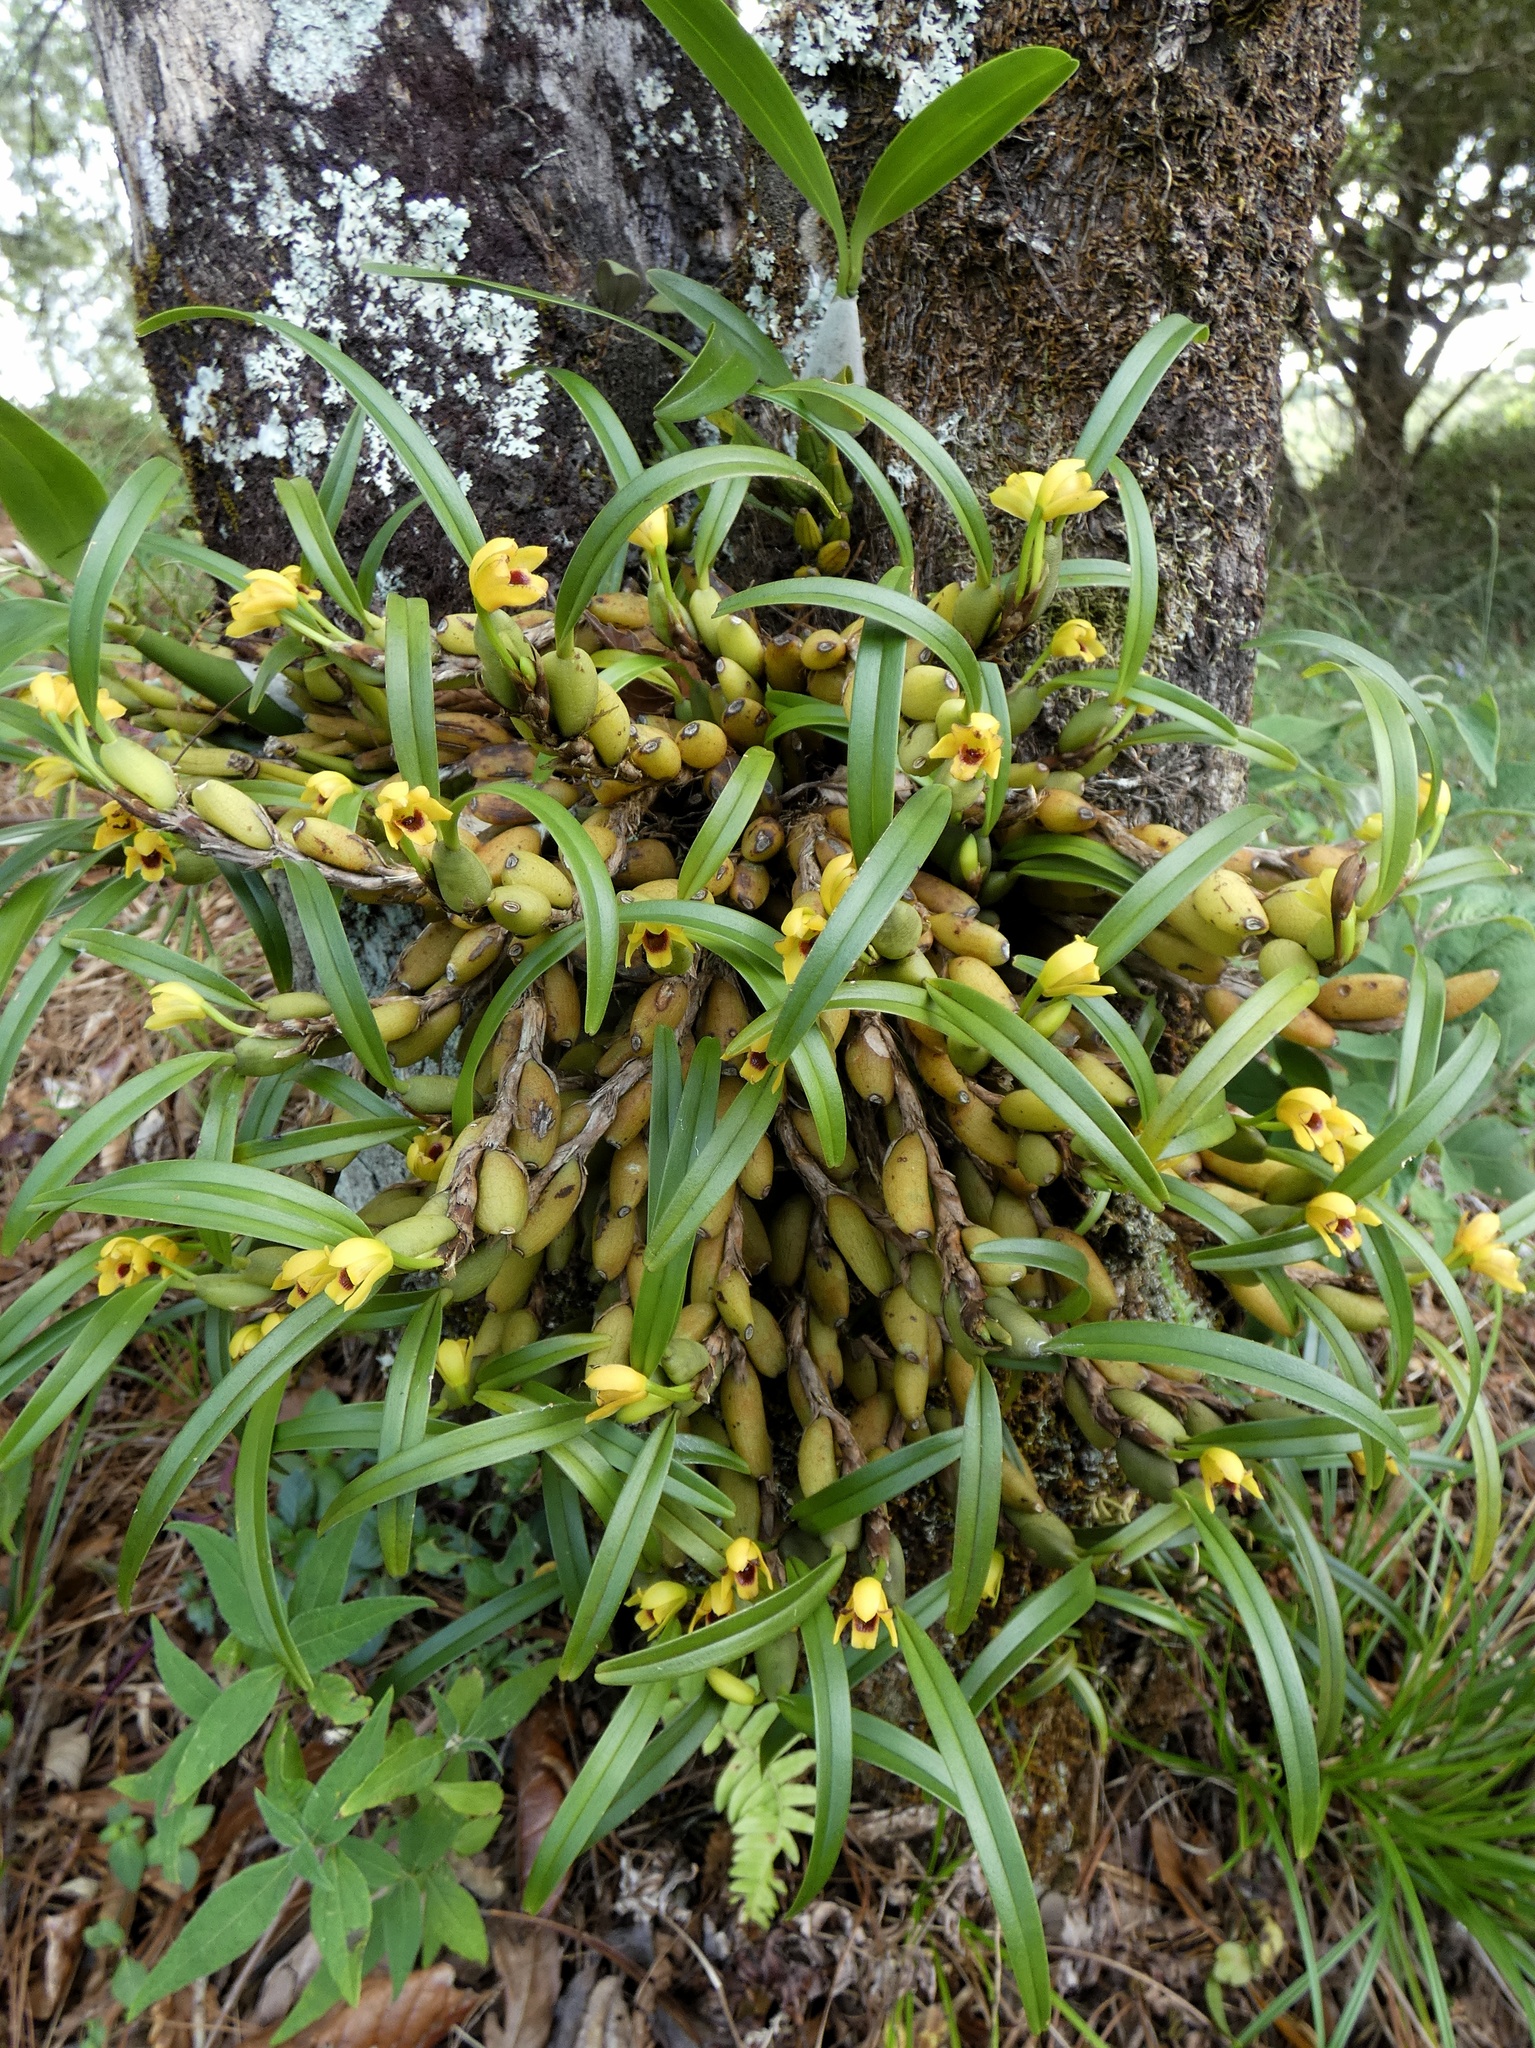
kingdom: Plantae
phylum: Tracheophyta
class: Liliopsida
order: Asparagales
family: Orchidaceae
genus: Maxillaria
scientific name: Maxillaria caespitifica
